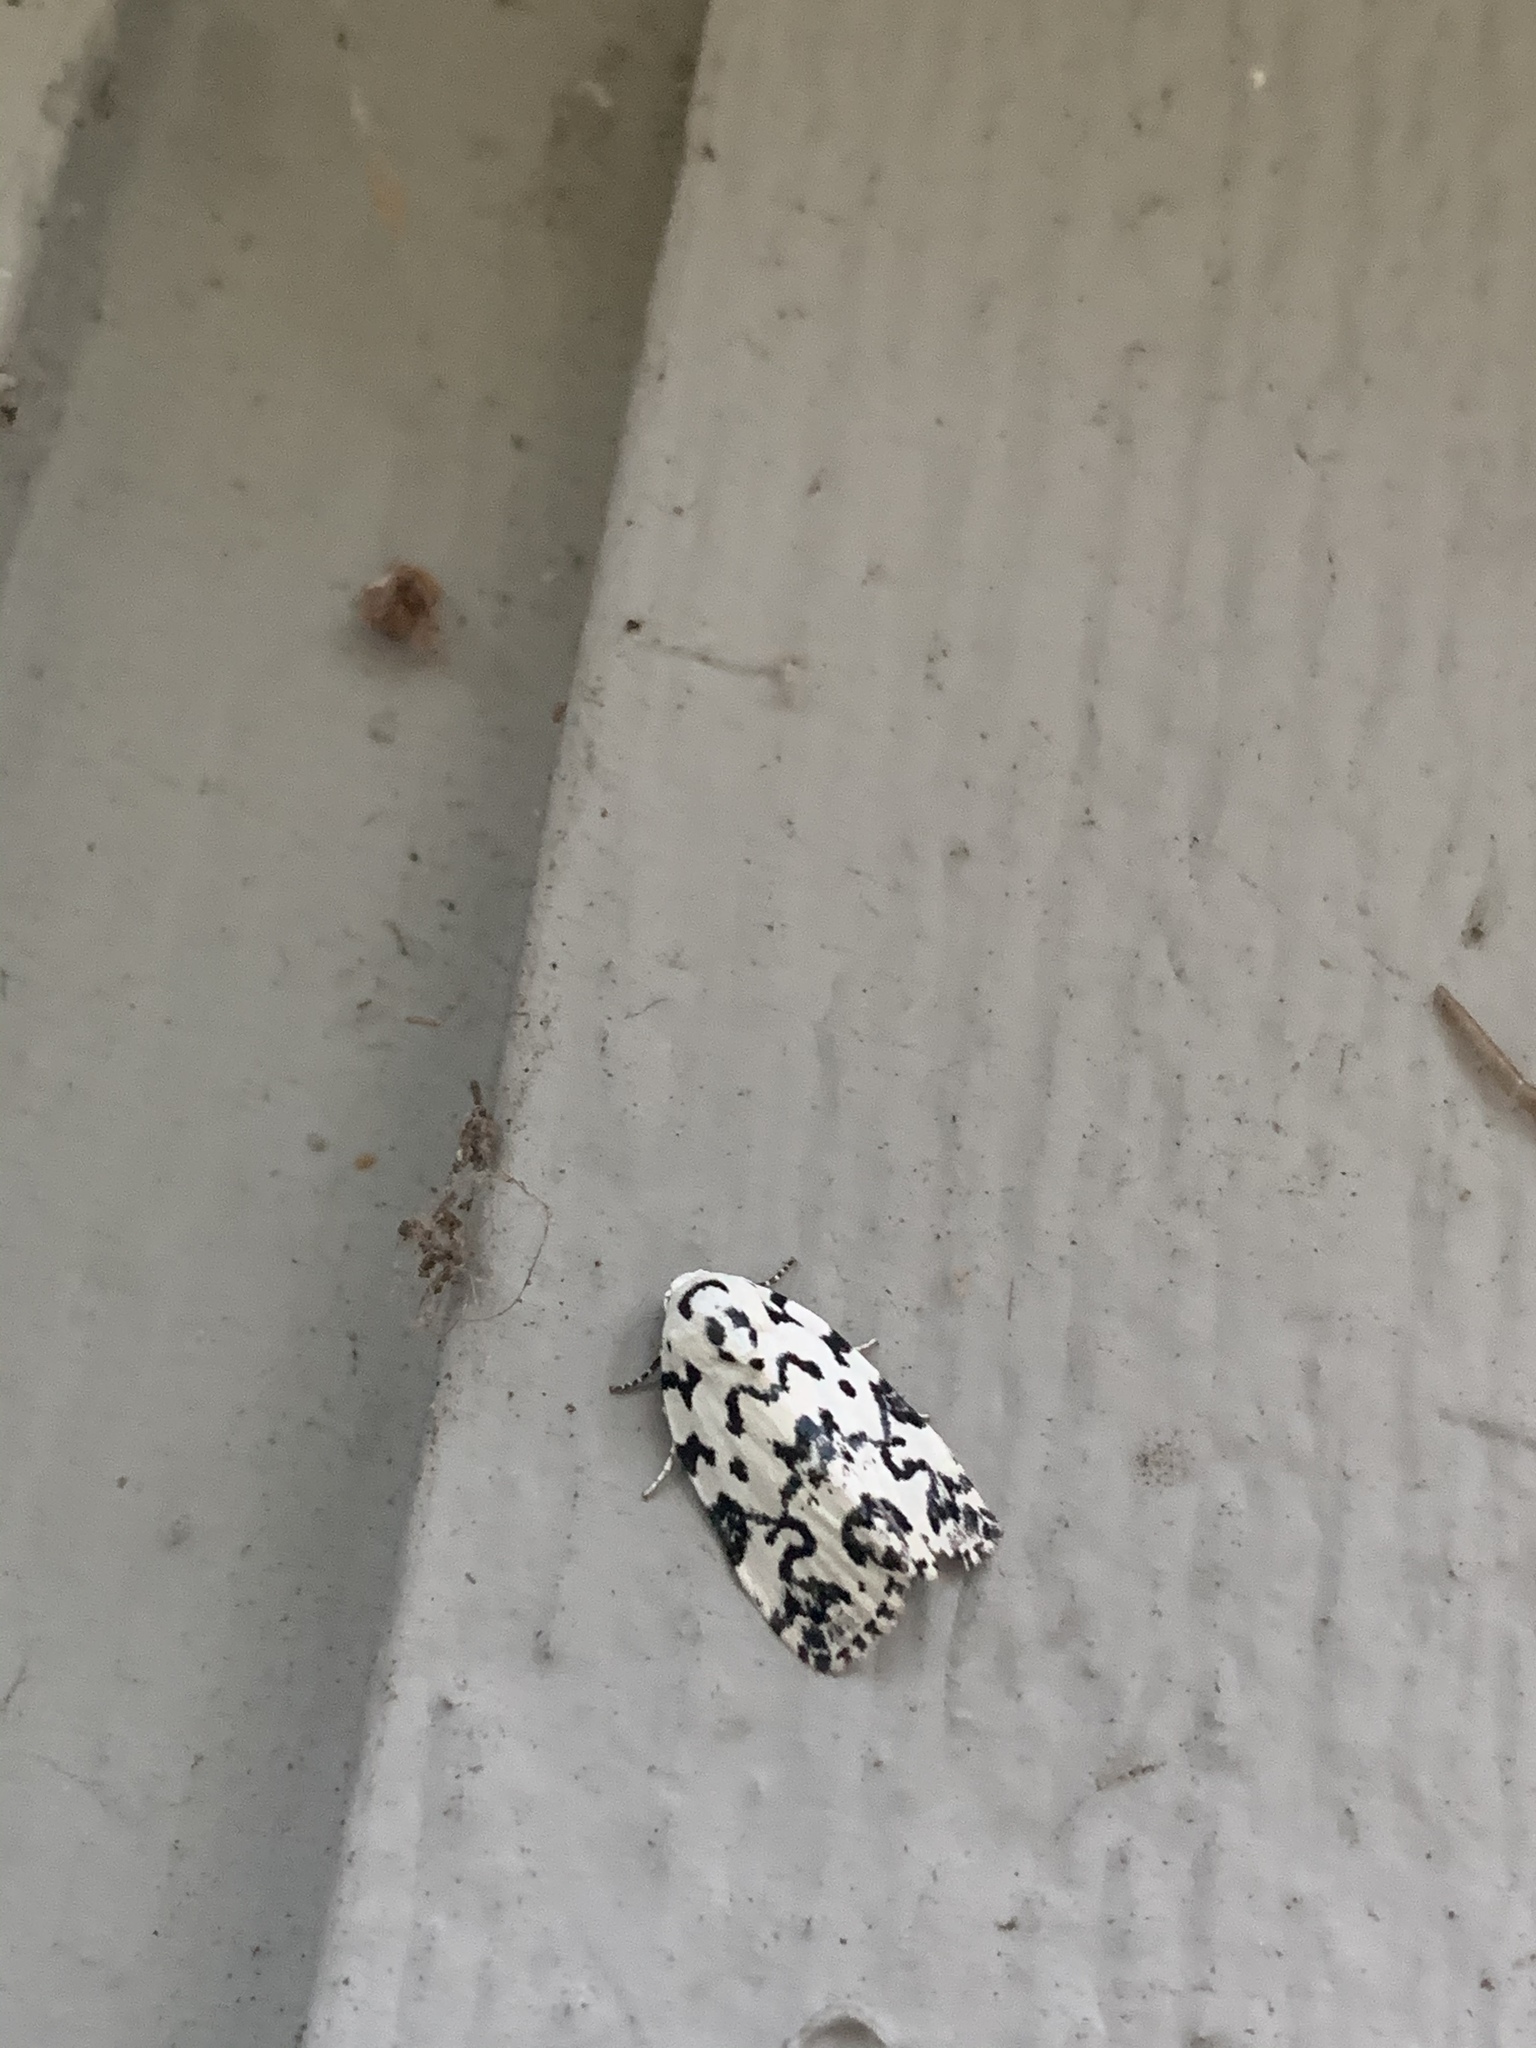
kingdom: Animalia
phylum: Arthropoda
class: Insecta
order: Lepidoptera
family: Noctuidae
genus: Polygrammate
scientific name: Polygrammate hebraeicum
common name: Hebrew moth
